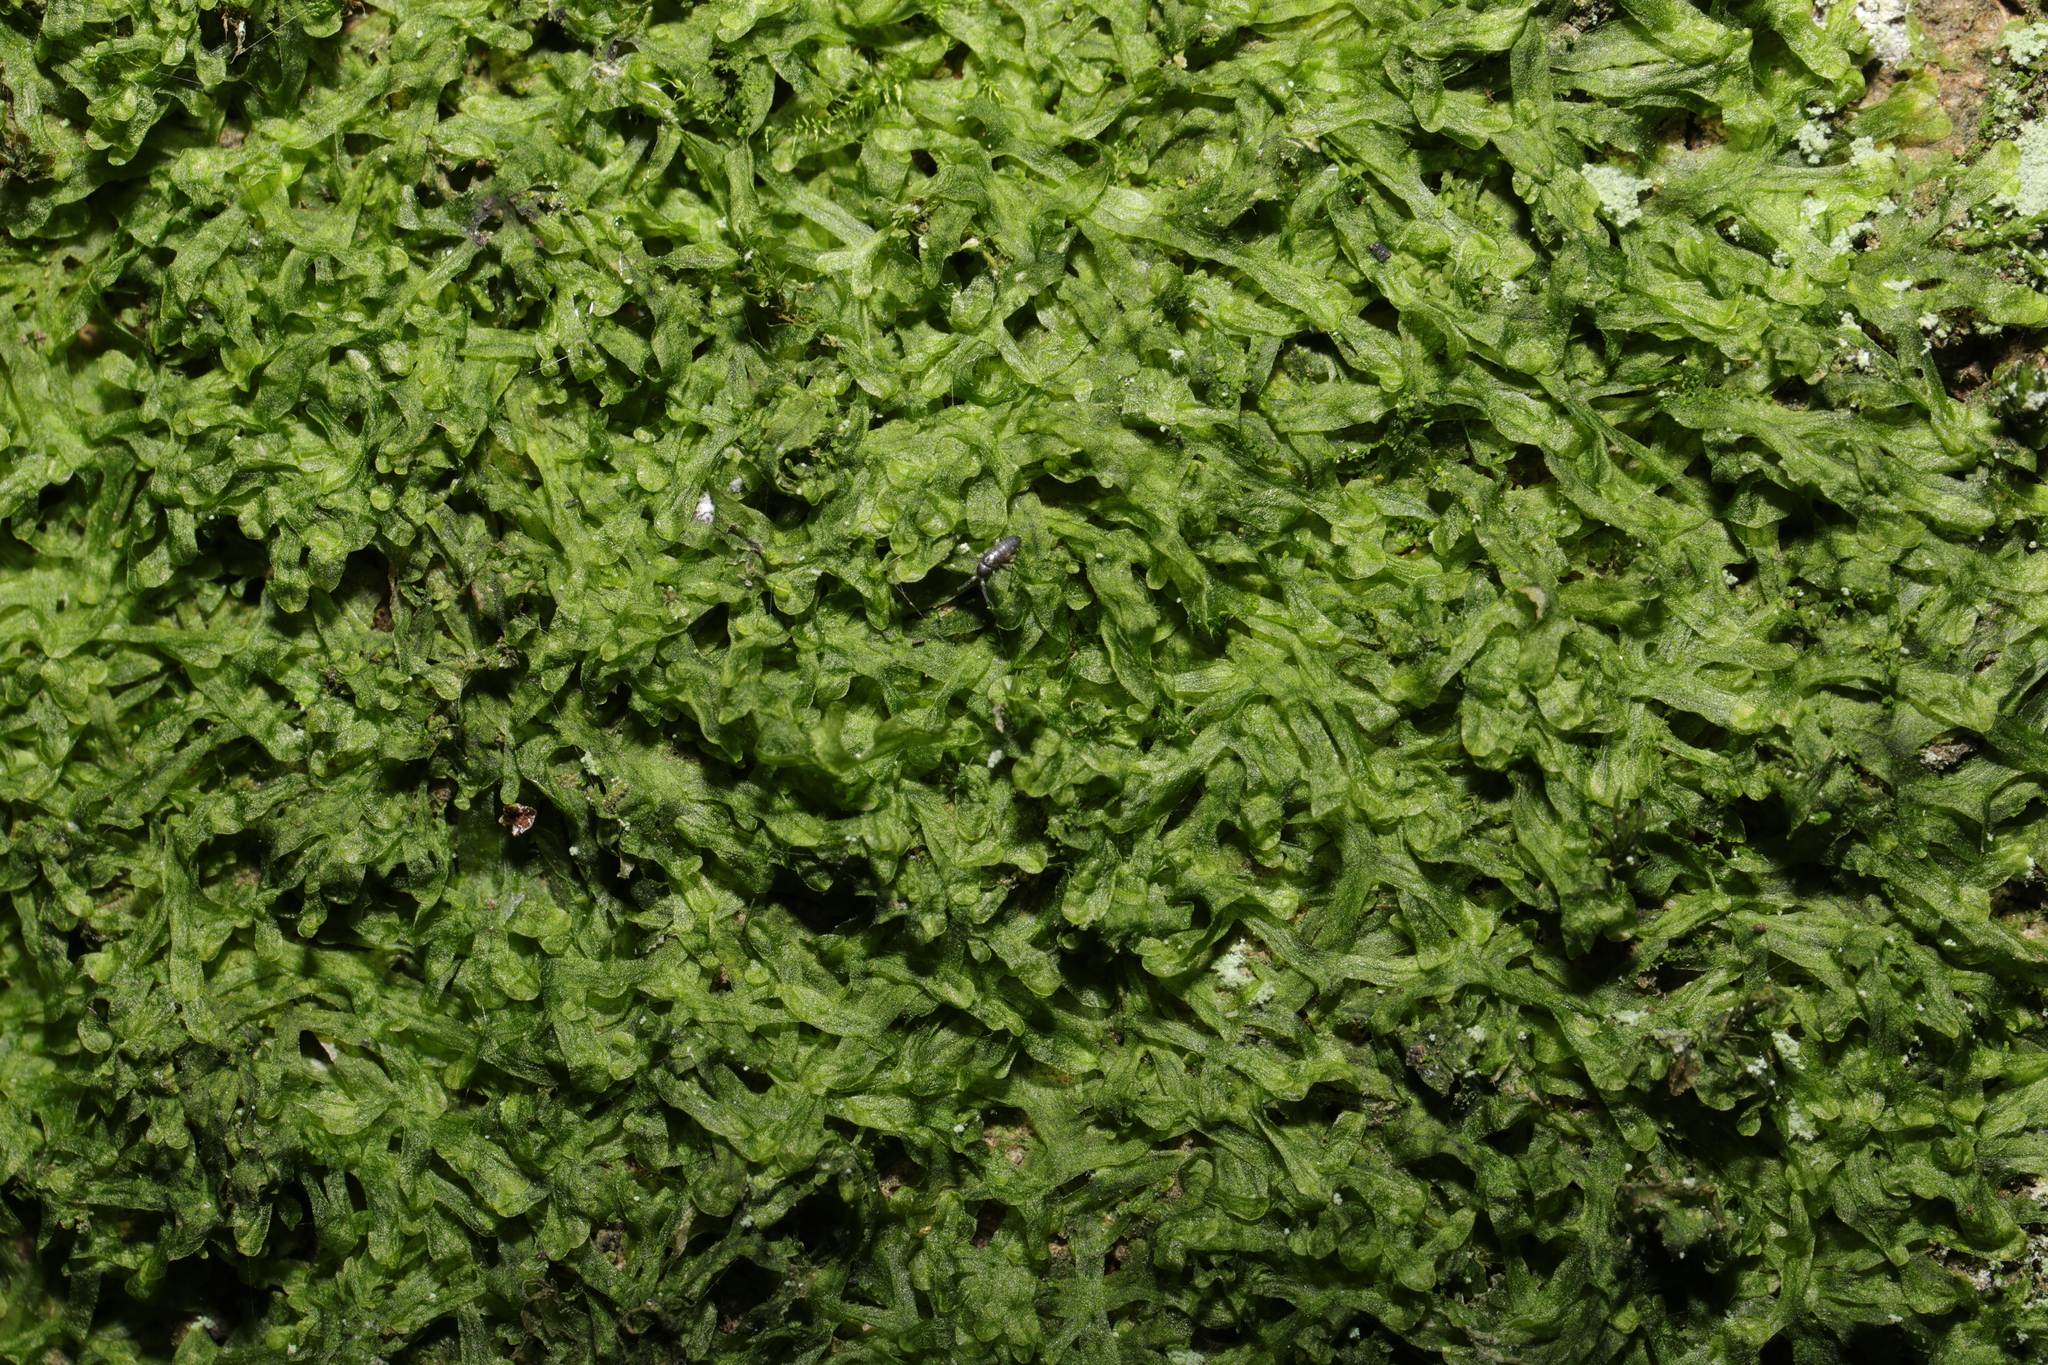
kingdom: Plantae
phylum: Marchantiophyta
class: Jungermanniopsida
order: Metzgeriales
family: Metzgeriaceae
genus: Metzgeria
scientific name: Metzgeria furcata
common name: Forked veilwort
